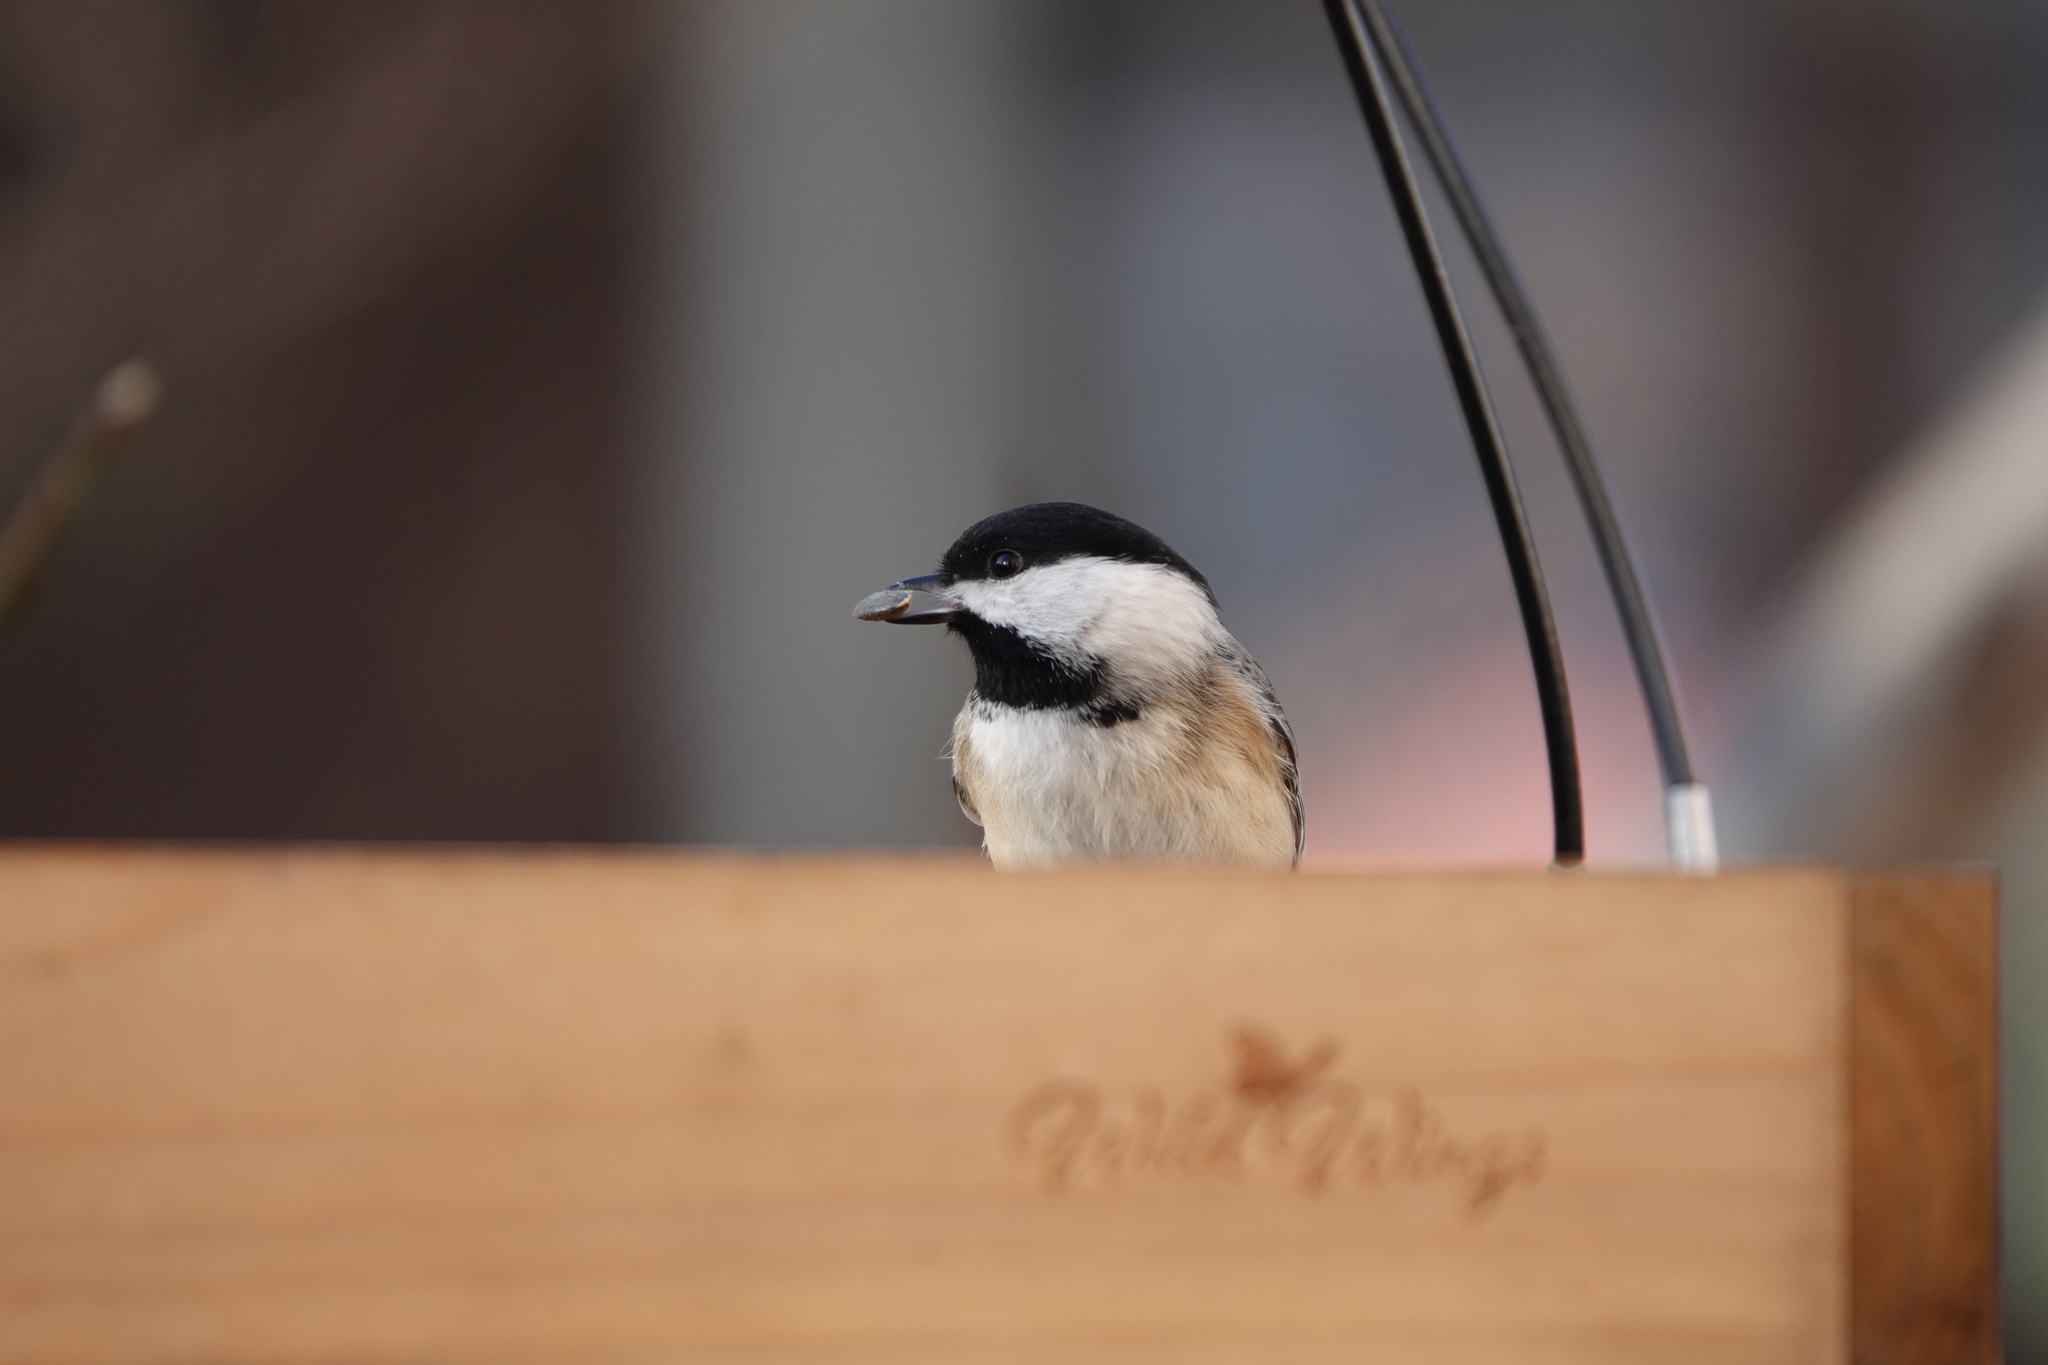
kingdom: Animalia
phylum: Chordata
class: Aves
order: Passeriformes
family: Paridae
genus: Poecile
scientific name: Poecile carolinensis
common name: Carolina chickadee
